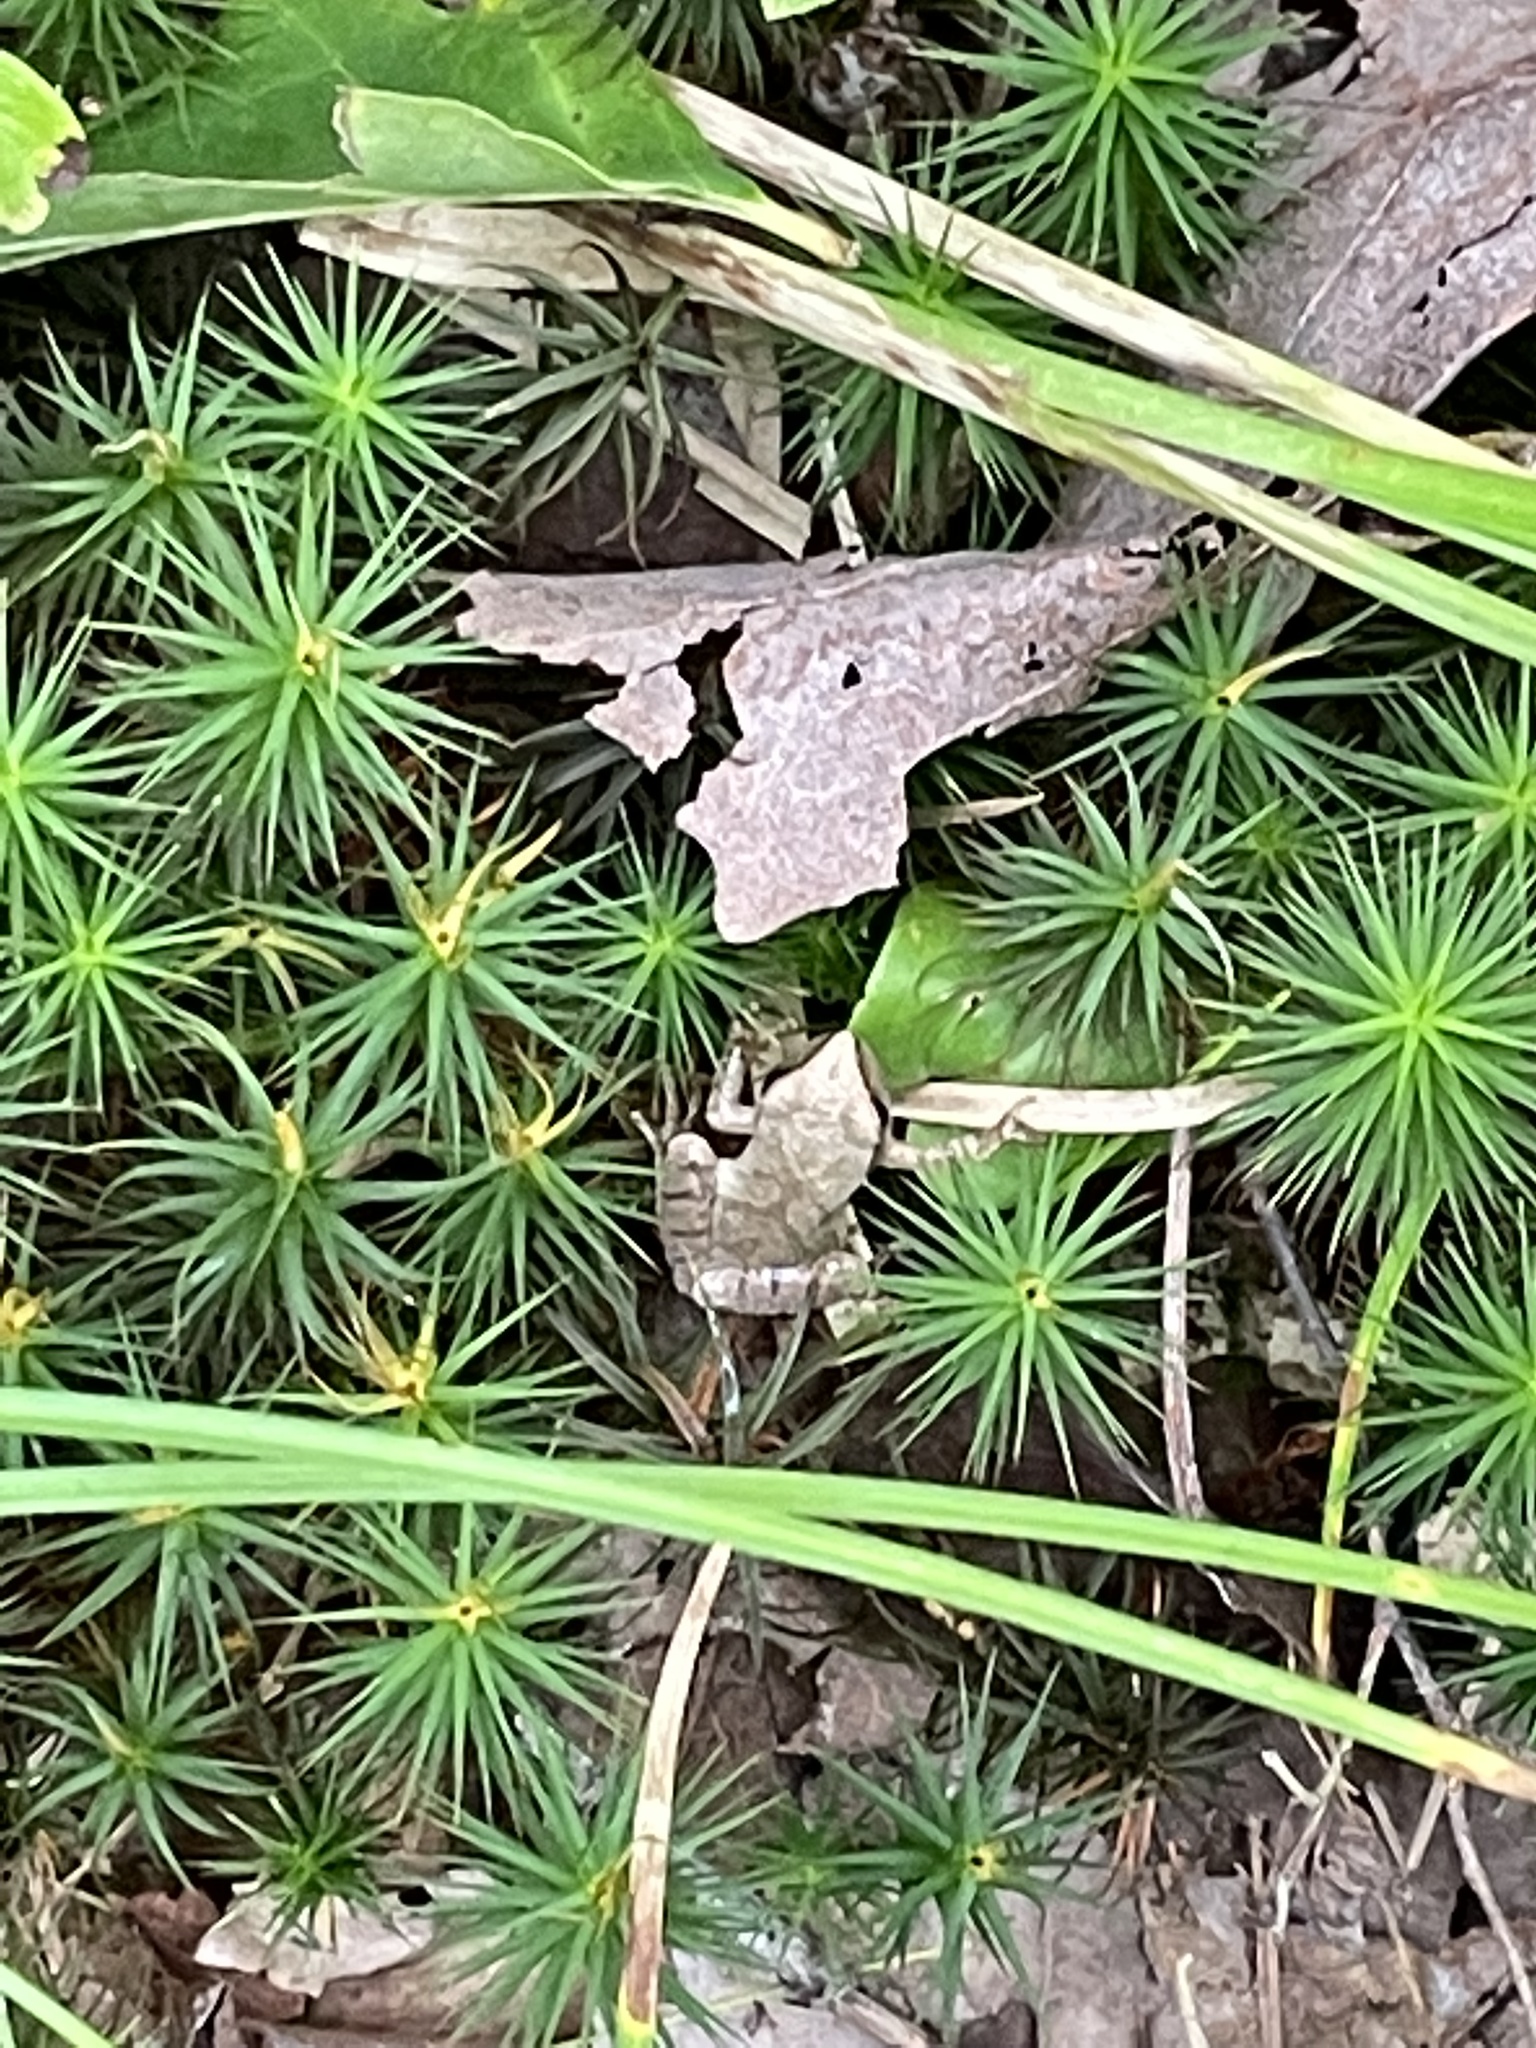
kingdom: Animalia
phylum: Chordata
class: Amphibia
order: Anura
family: Hylidae
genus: Pseudacris
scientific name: Pseudacris crucifer
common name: Spring peeper
